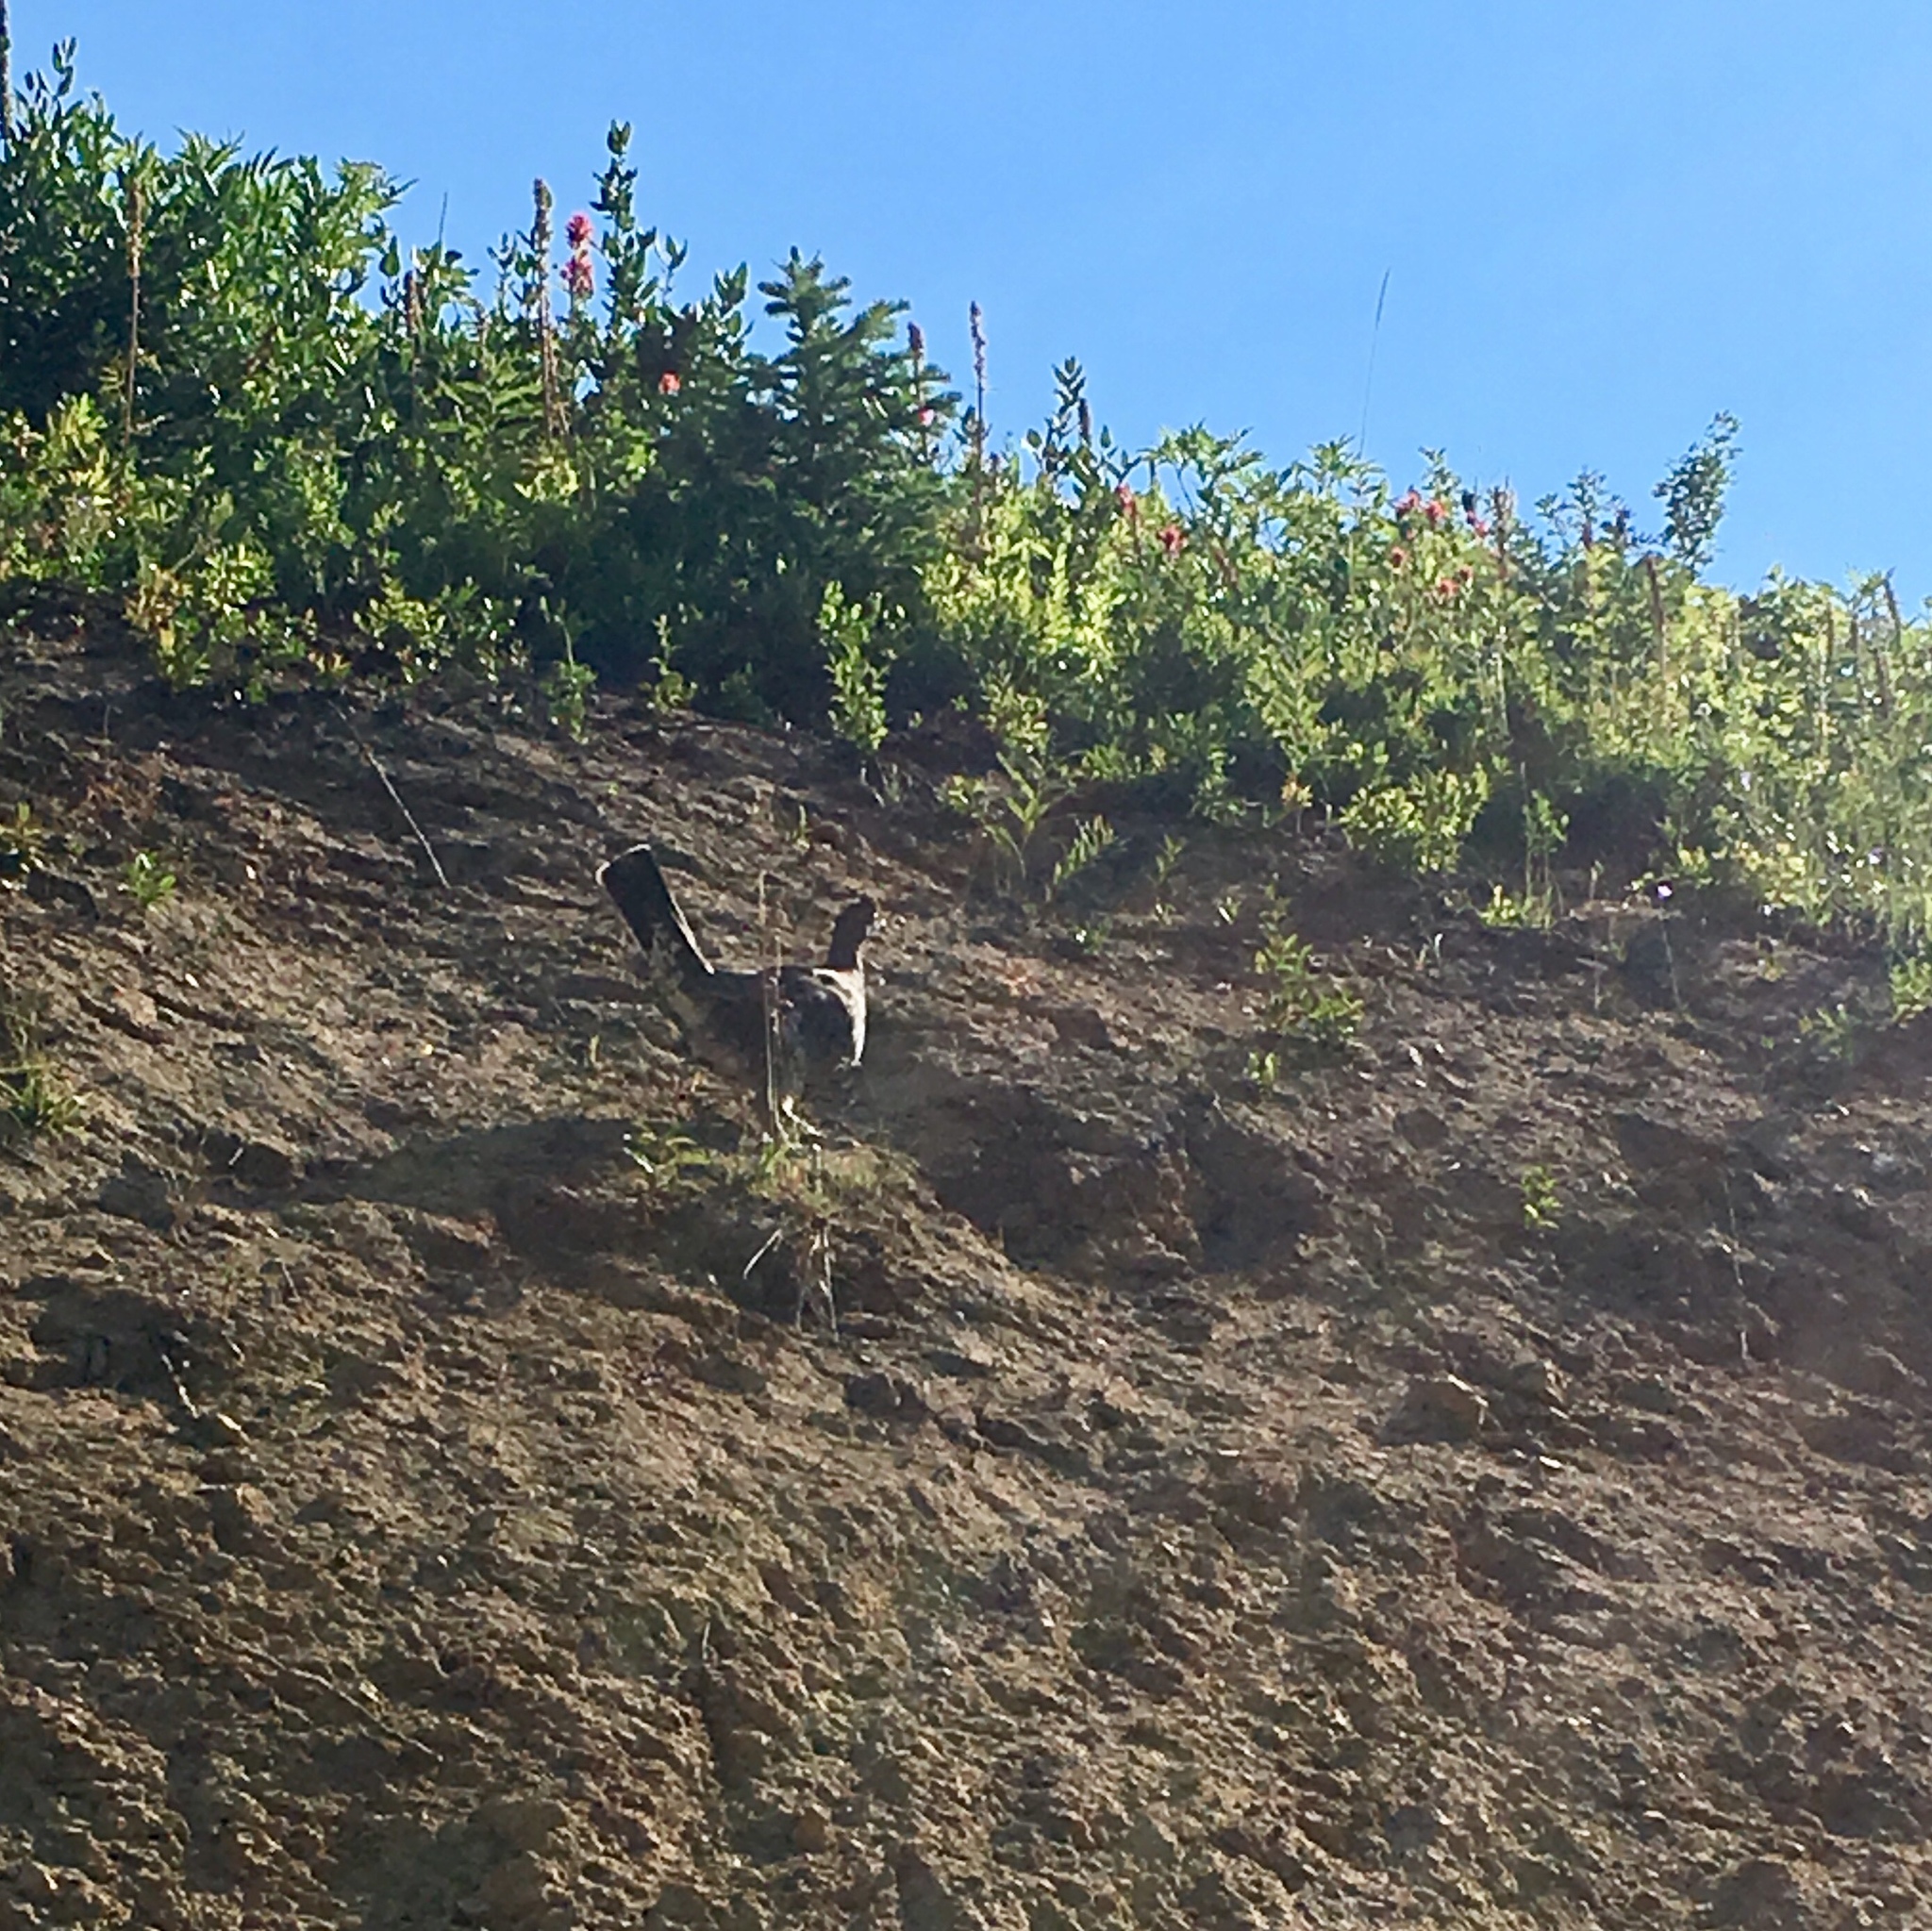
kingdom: Animalia
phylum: Chordata
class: Aves
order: Galliformes
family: Phasianidae
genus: Dendragapus
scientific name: Dendragapus obscurus
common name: Dusky grouse
